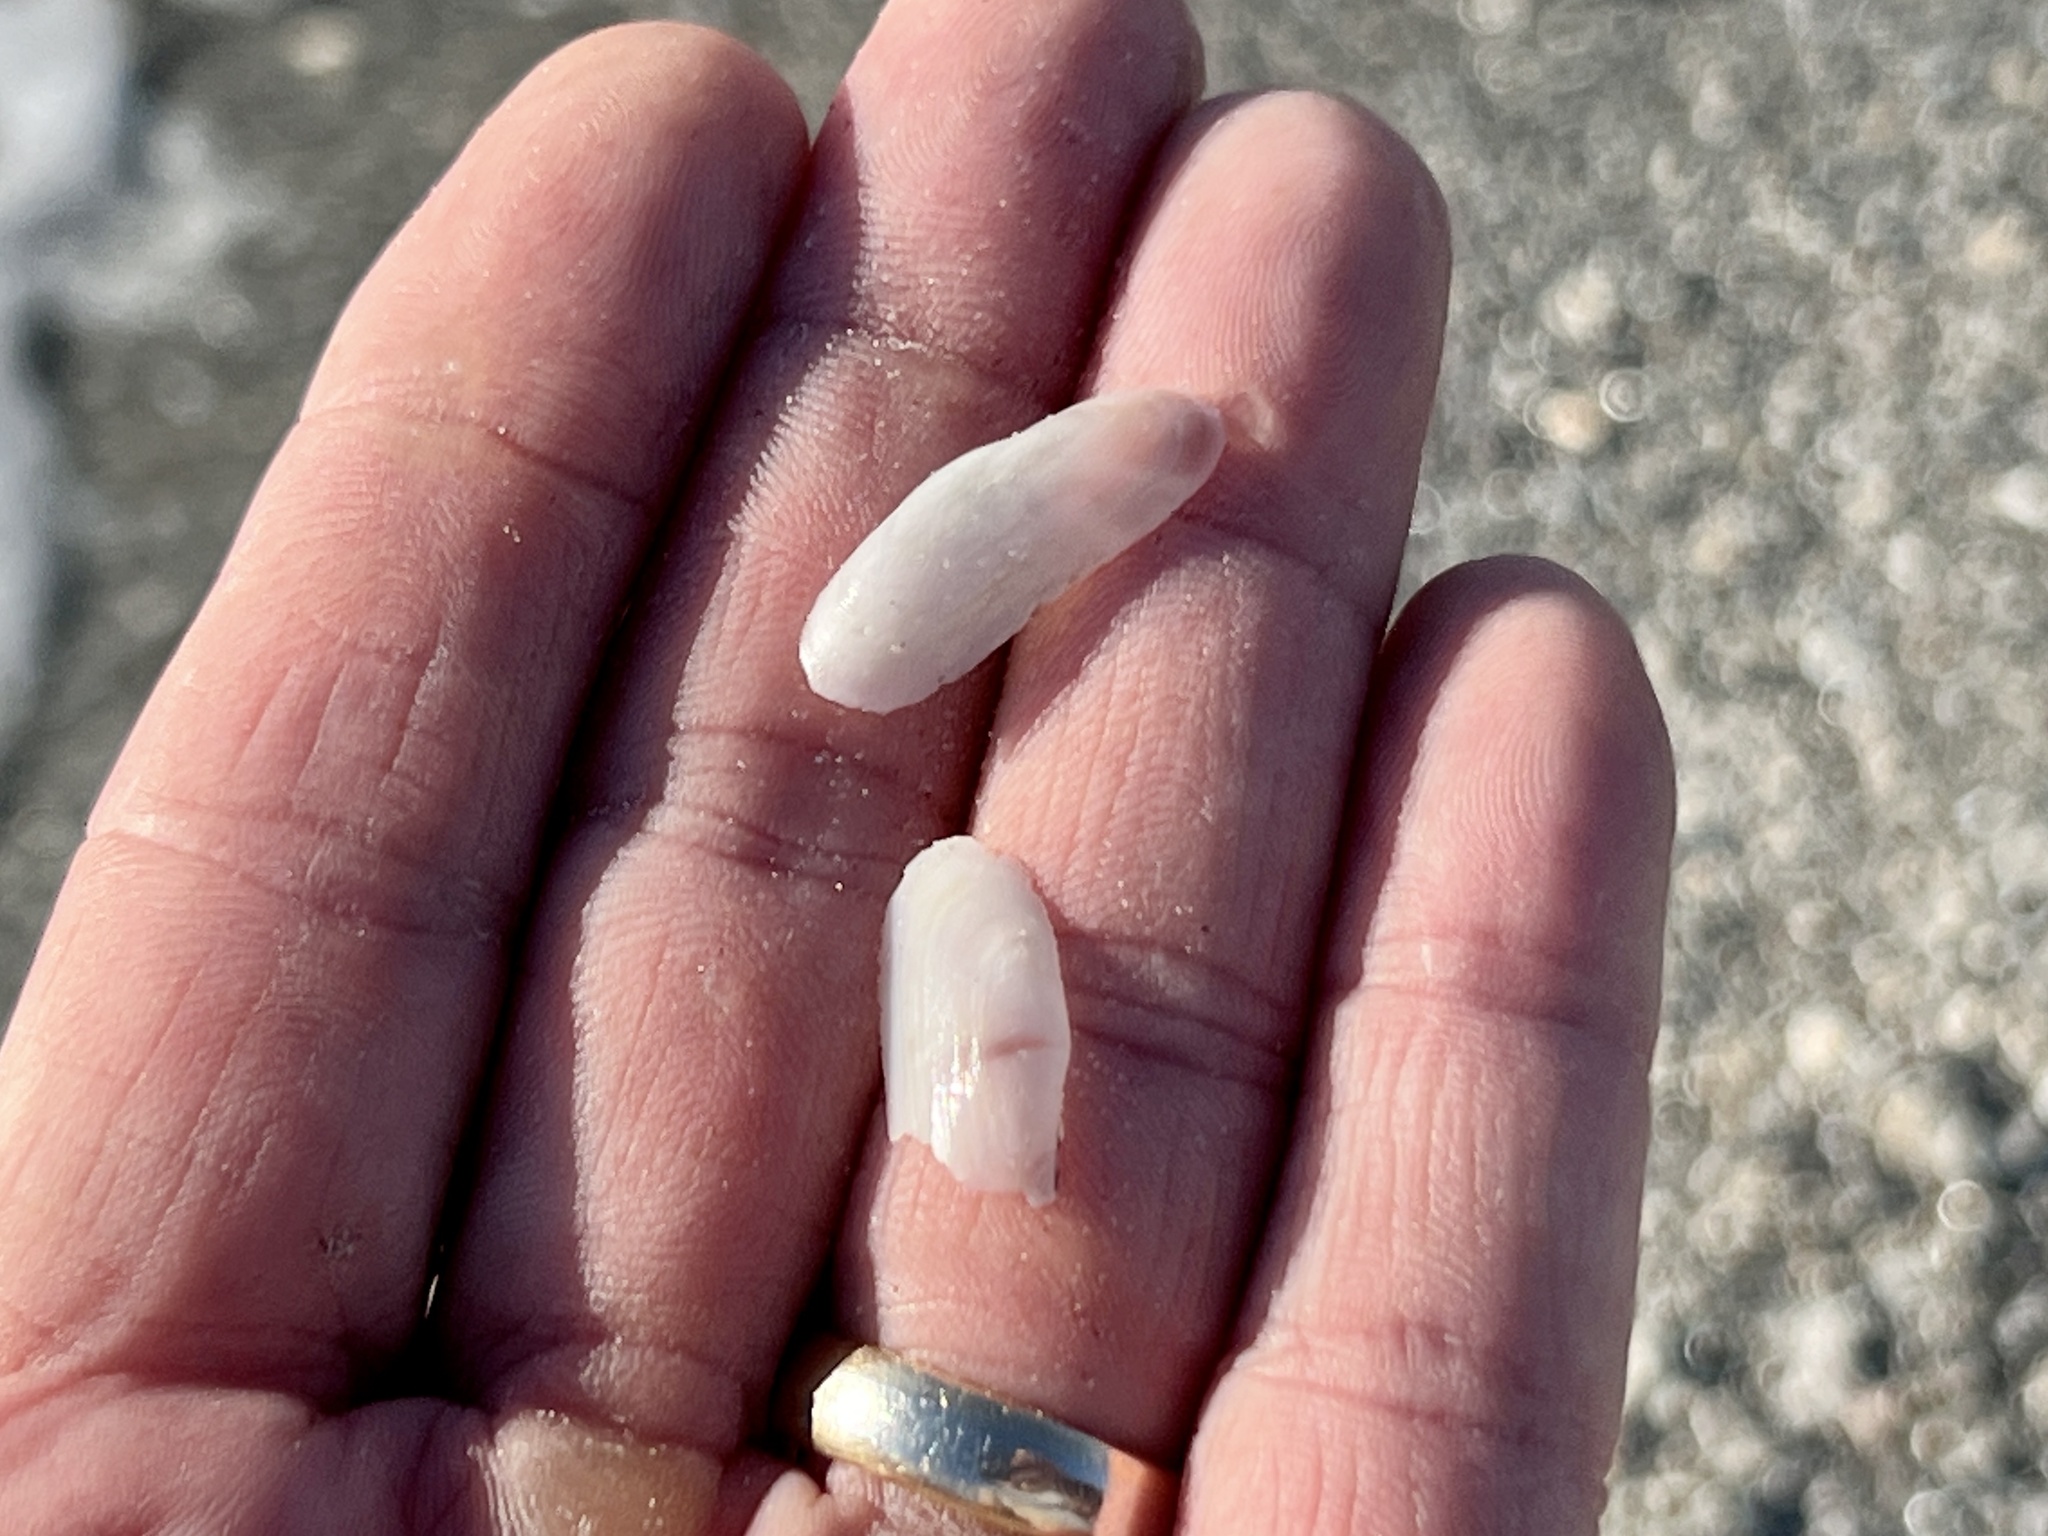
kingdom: Animalia
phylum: Mollusca
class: Bivalvia
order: Cardiida
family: Solecurtidae
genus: Tagelus
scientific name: Tagelus divisus
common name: Purplish tagelus
